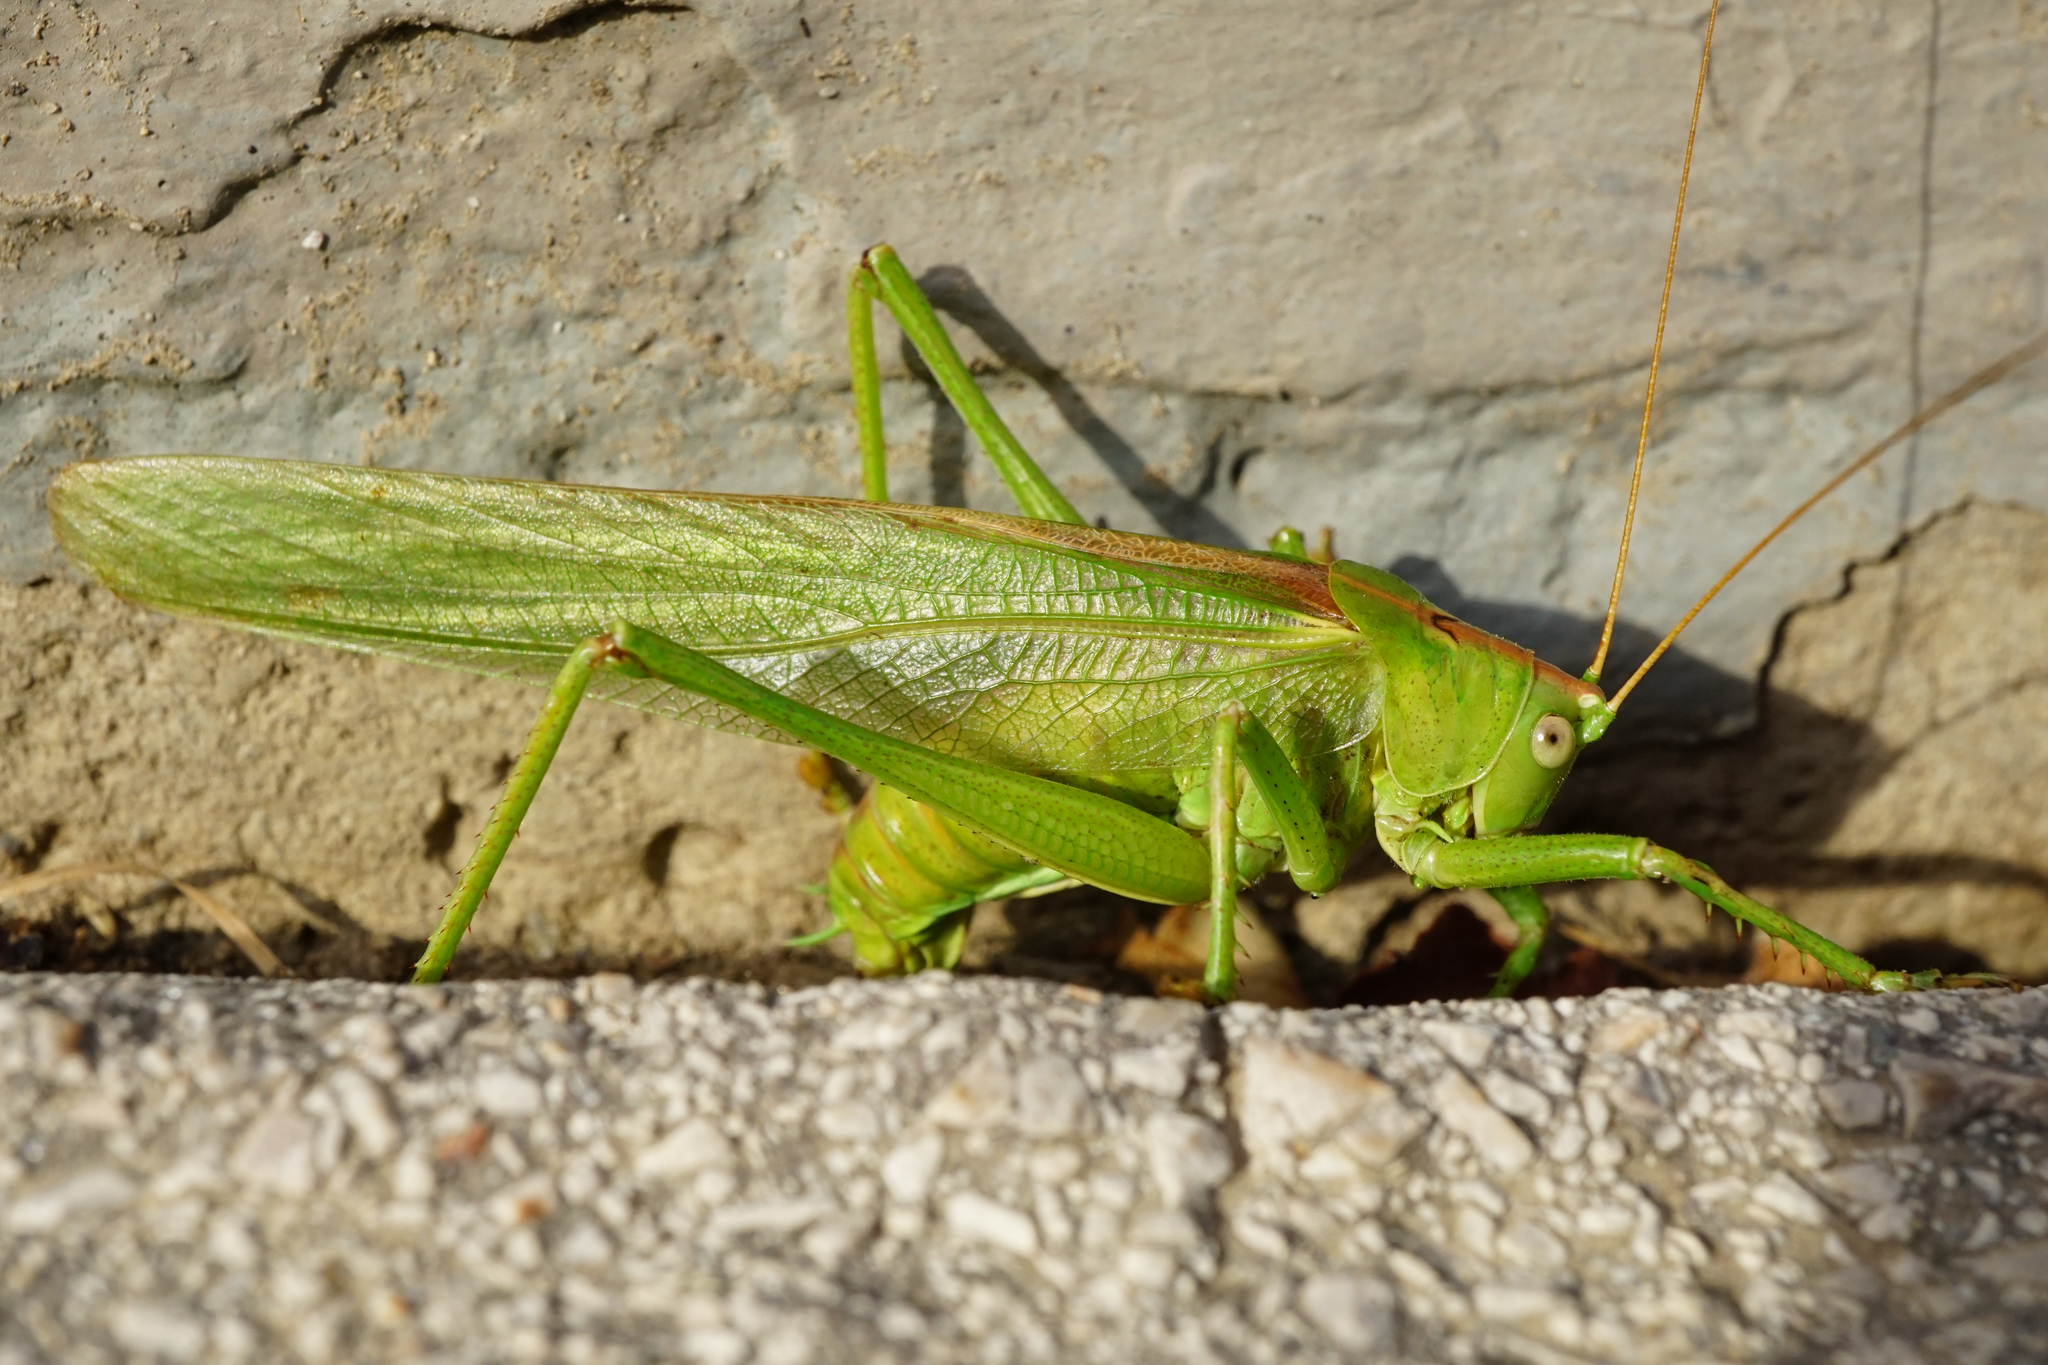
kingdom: Animalia
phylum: Arthropoda
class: Insecta
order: Orthoptera
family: Tettigoniidae
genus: Tettigonia
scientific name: Tettigonia viridissima
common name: Great green bush-cricket
